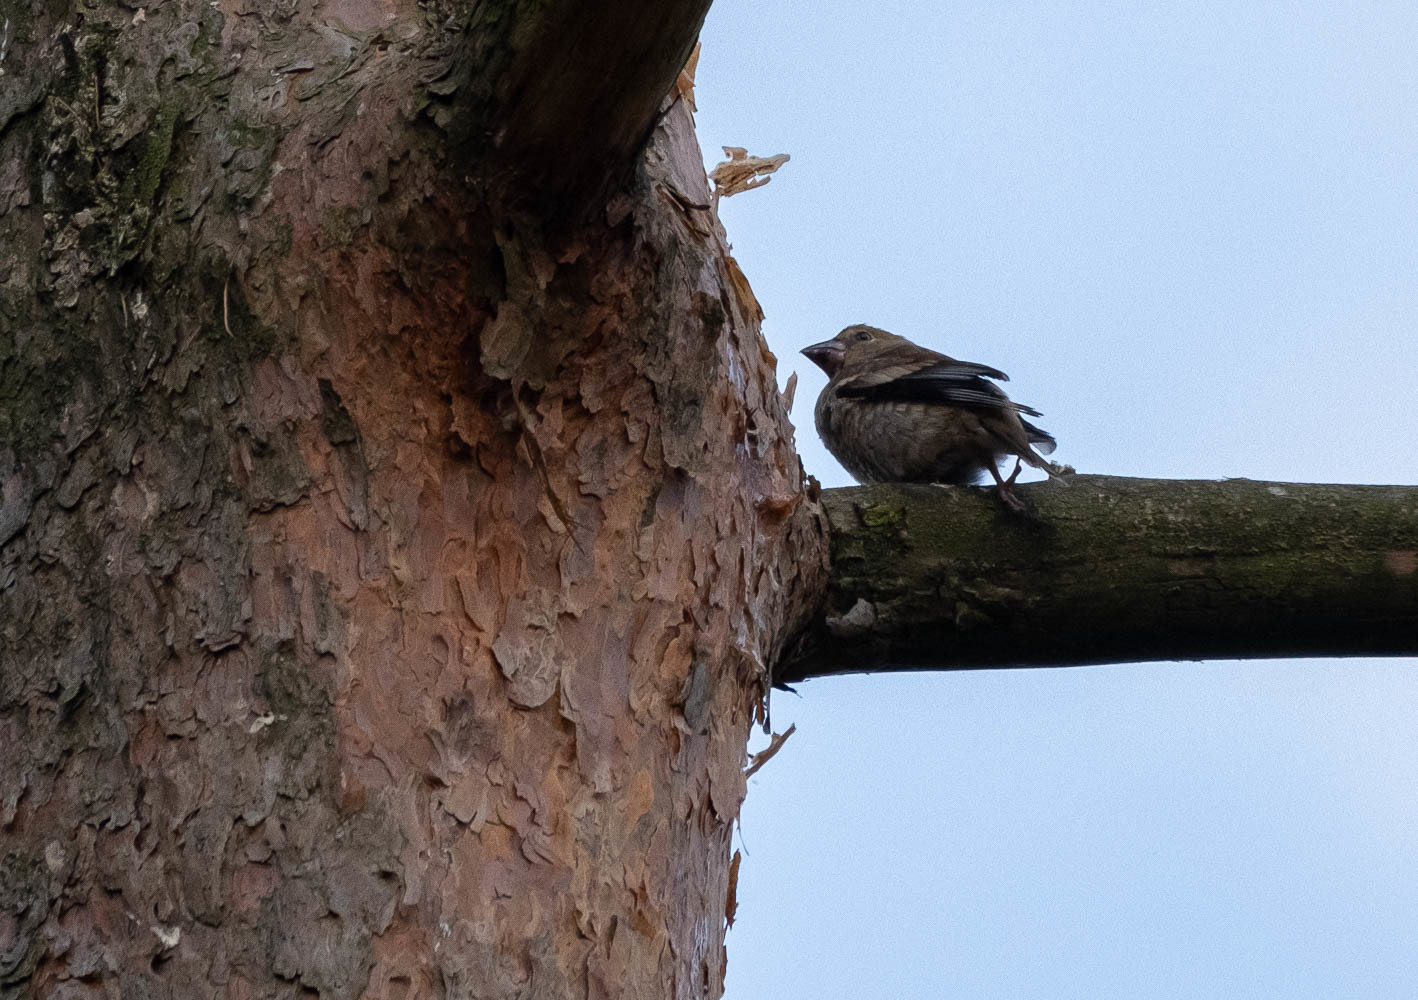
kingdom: Animalia
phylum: Chordata
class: Aves
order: Passeriformes
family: Fringillidae
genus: Coccothraustes
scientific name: Coccothraustes coccothraustes
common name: Hawfinch
